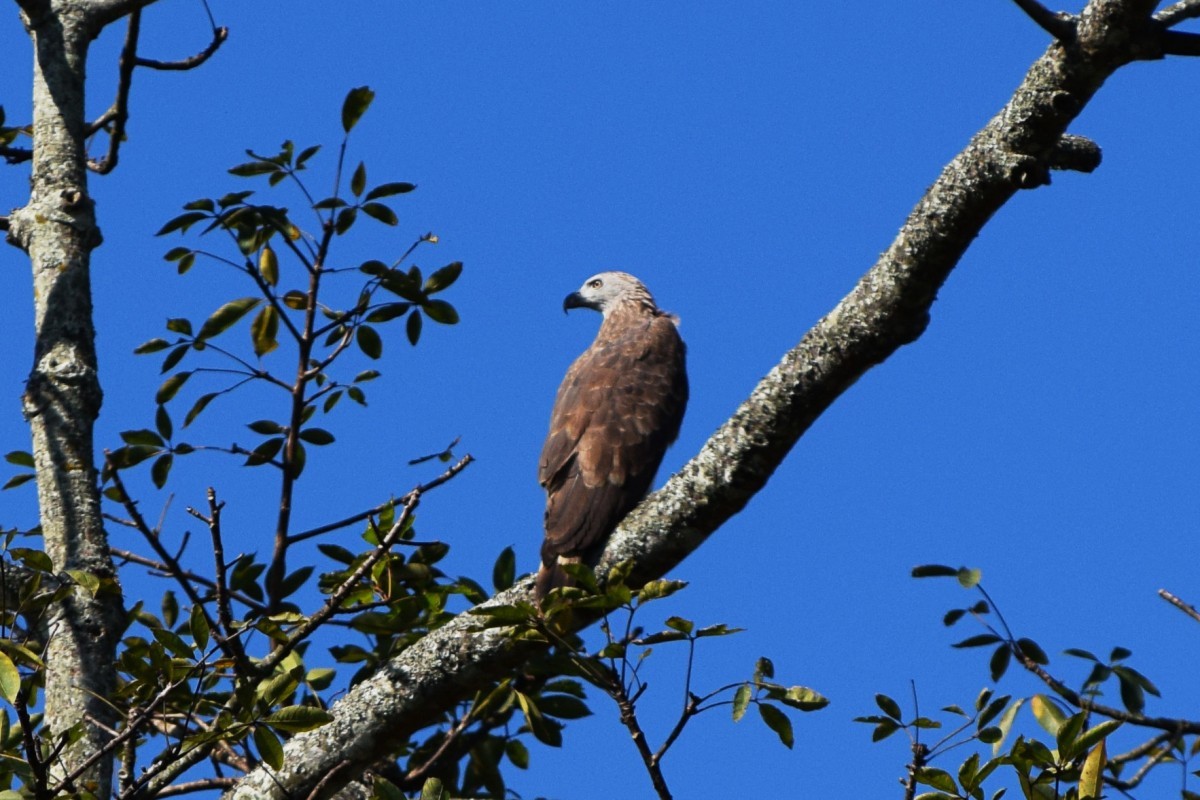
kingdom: Animalia
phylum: Chordata
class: Aves
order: Accipitriformes
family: Accipitridae
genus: Icthyophaga
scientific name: Icthyophaga ichthyaetus
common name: Grey-headed fish eagle
